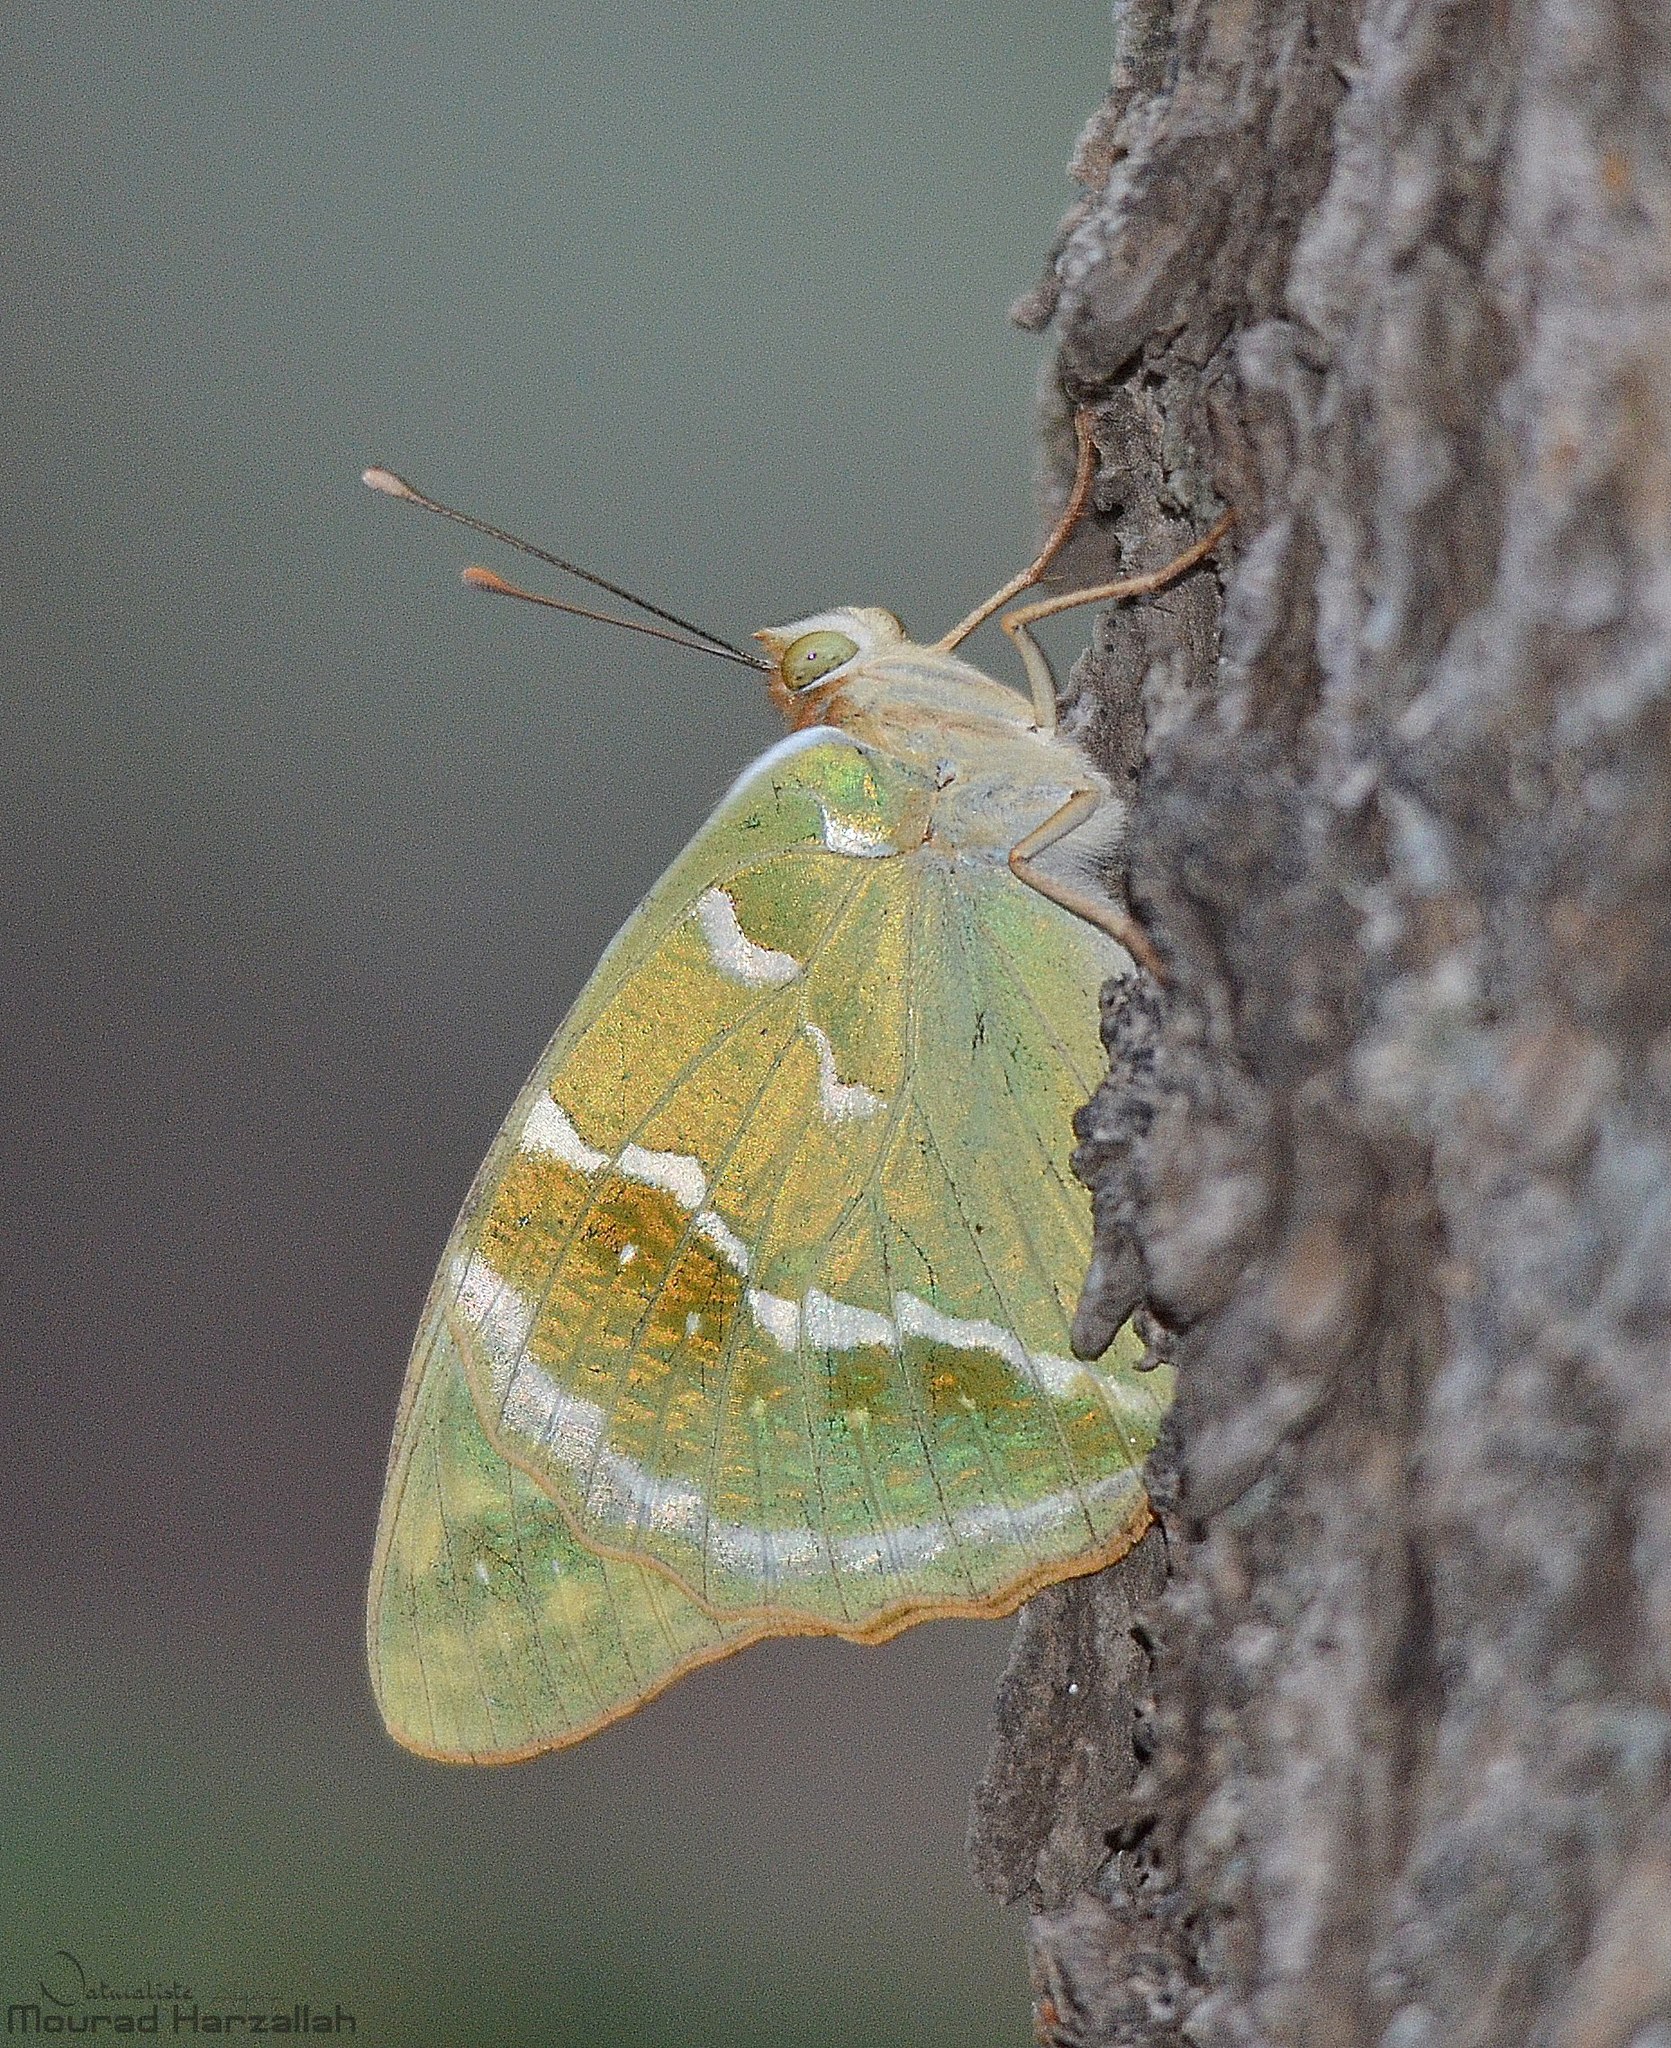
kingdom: Animalia
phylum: Arthropoda
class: Insecta
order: Lepidoptera
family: Nymphalidae
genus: Damora
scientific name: Damora pandora
